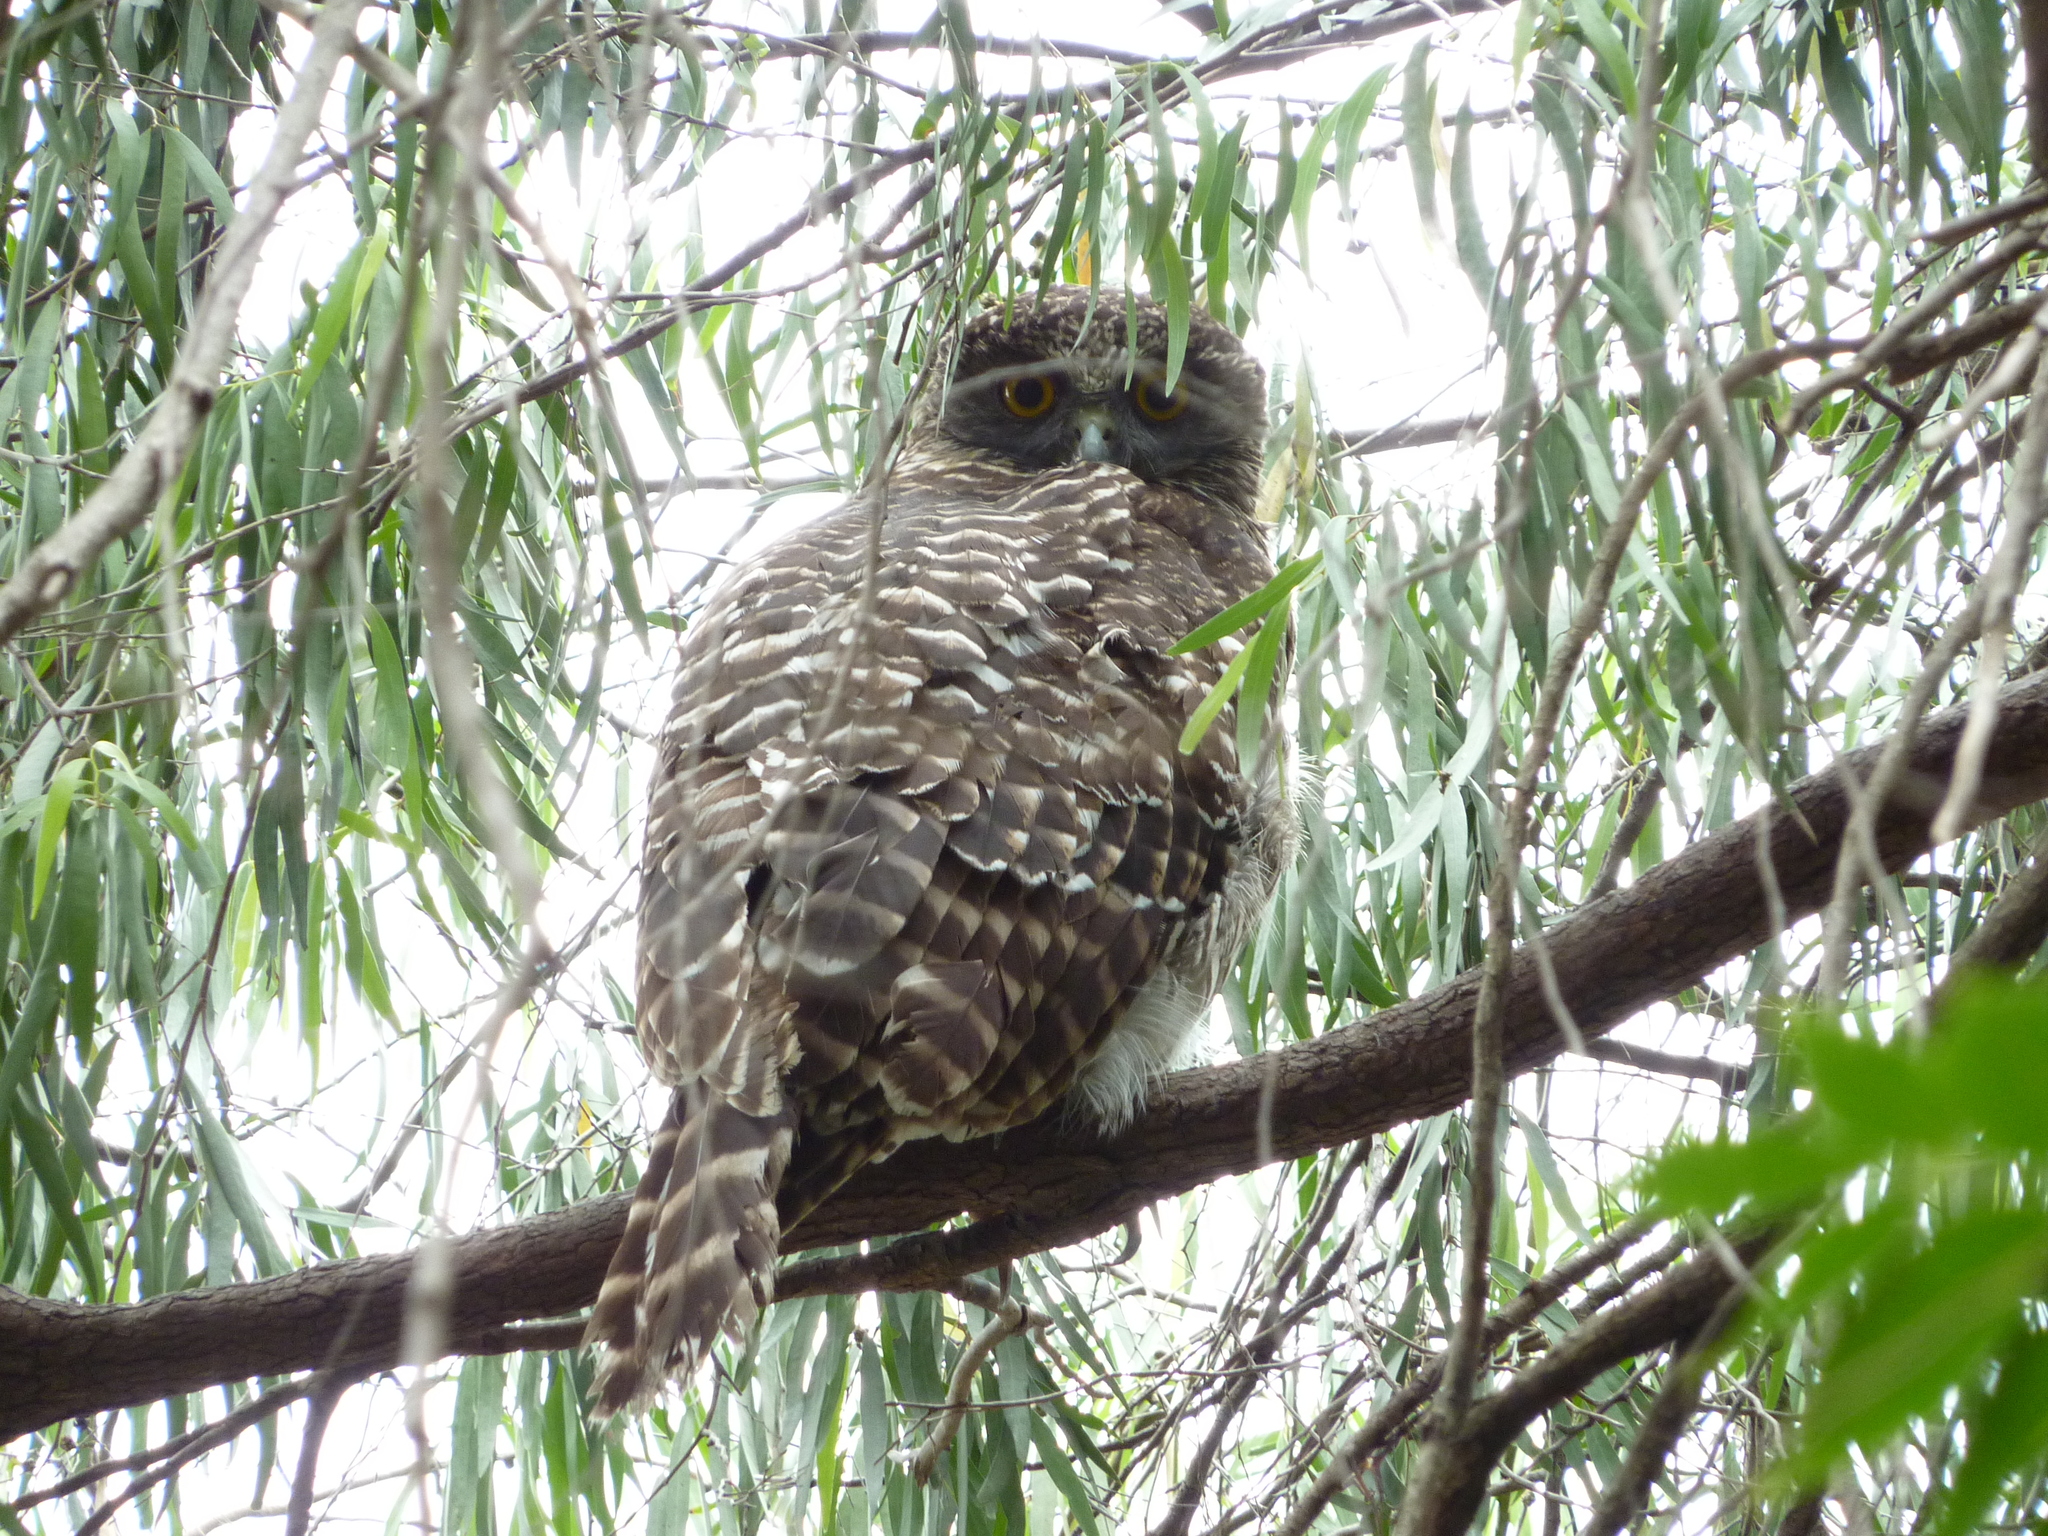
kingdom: Animalia
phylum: Chordata
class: Aves
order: Strigiformes
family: Strigidae
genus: Ninox
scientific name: Ninox strenua
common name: Powerful owl
